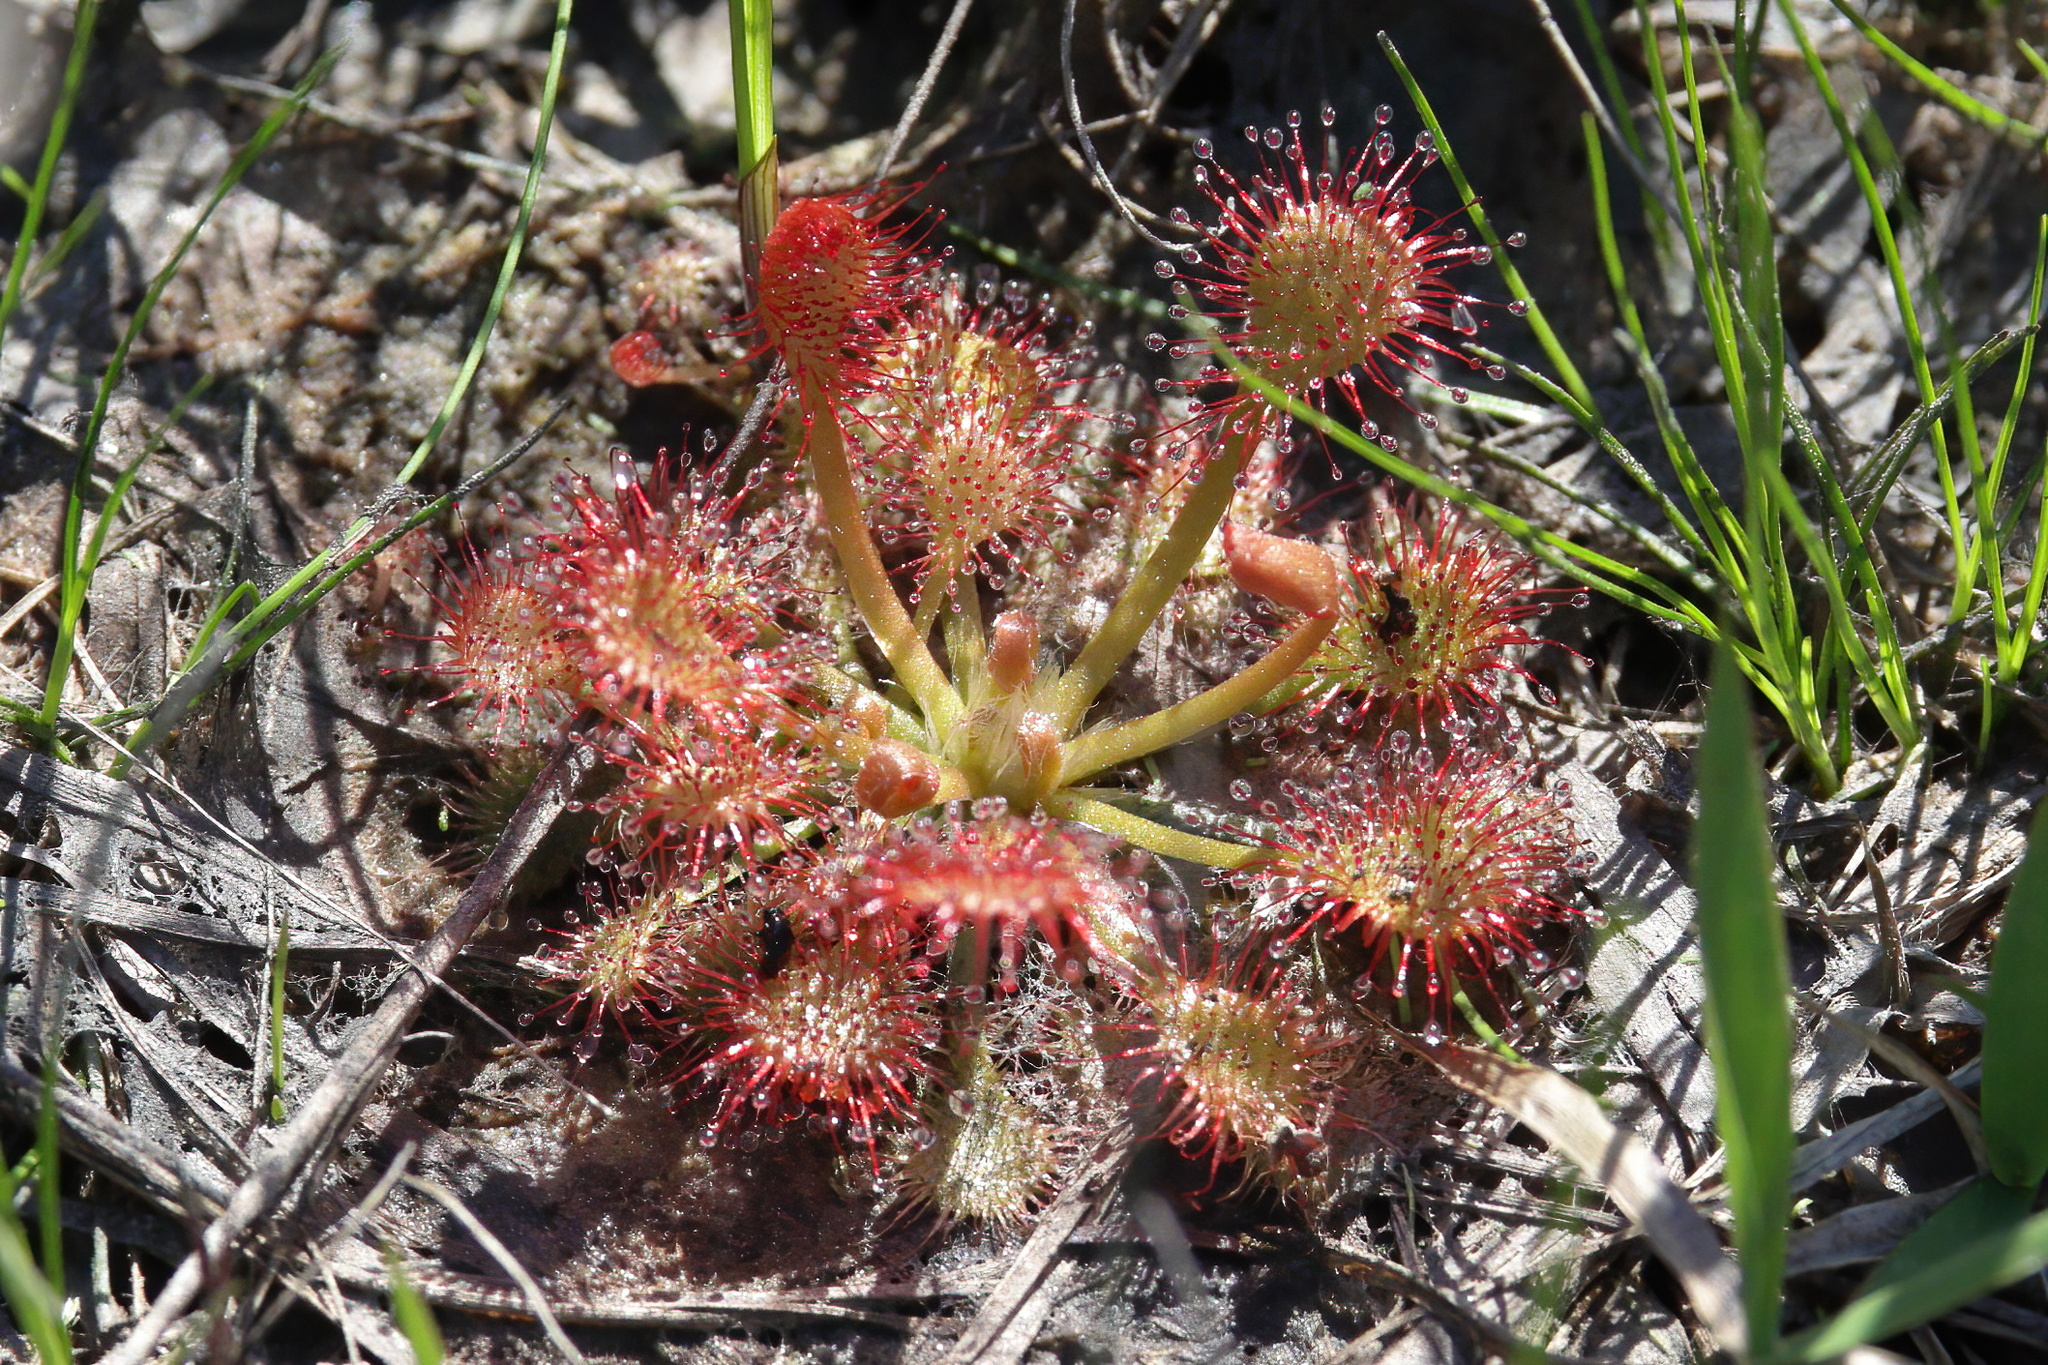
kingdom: Plantae
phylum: Tracheophyta
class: Magnoliopsida
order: Caryophyllales
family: Droseraceae
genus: Drosera
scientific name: Drosera capillaris
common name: Pink sundew
